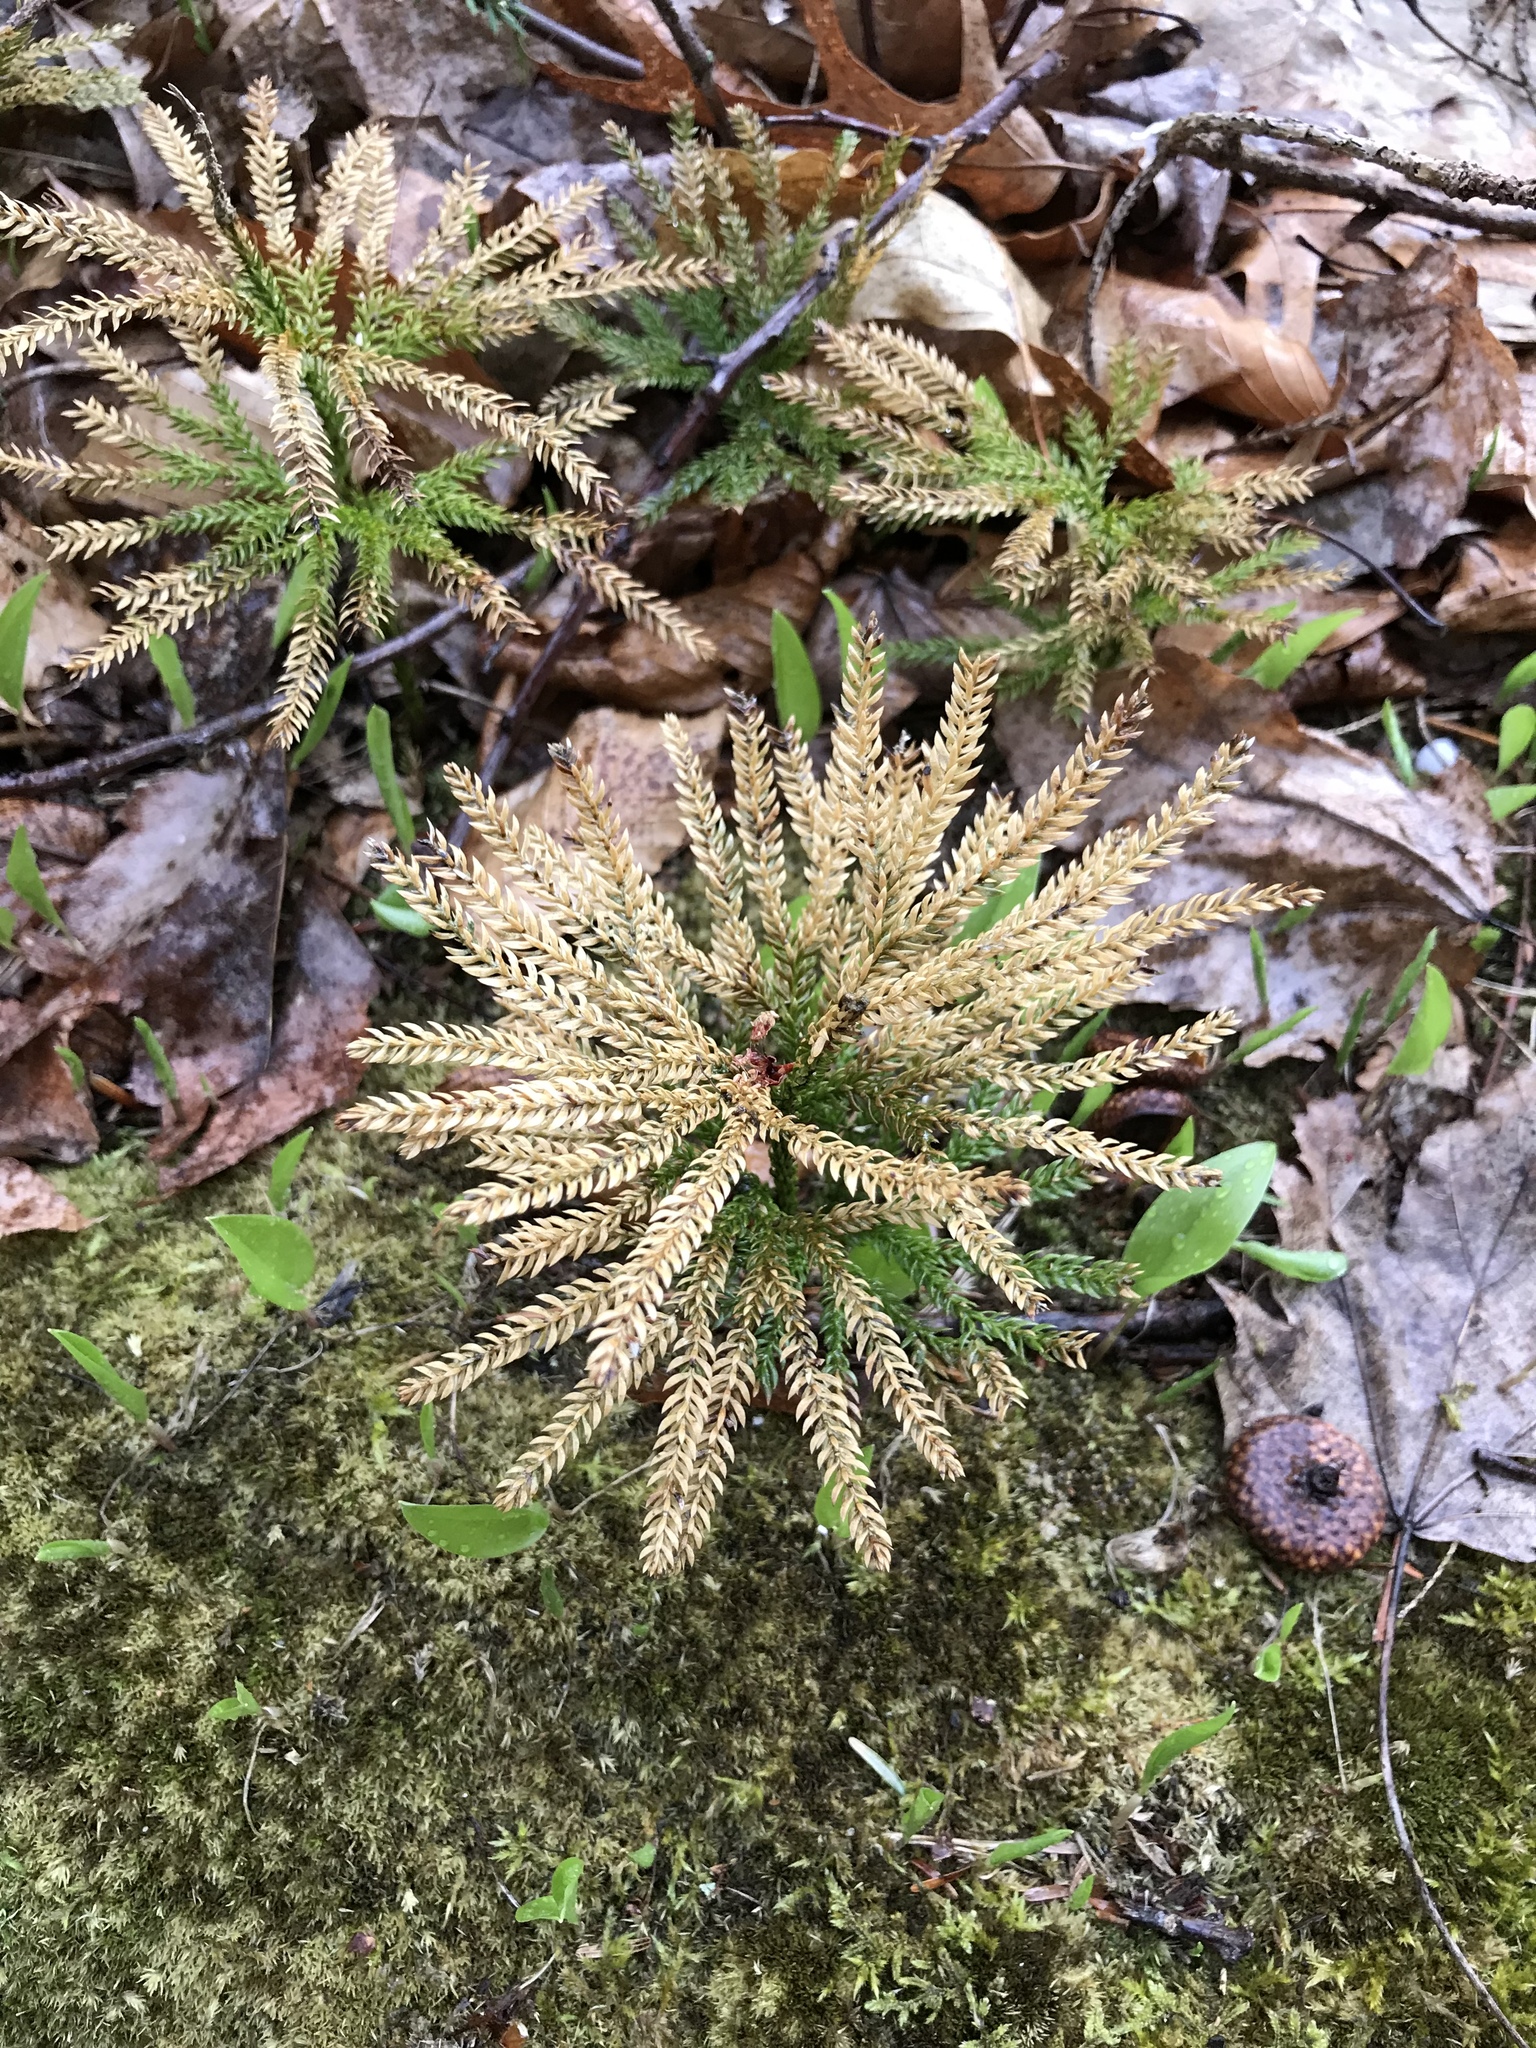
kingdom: Plantae
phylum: Tracheophyta
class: Lycopodiopsida
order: Lycopodiales
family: Lycopodiaceae
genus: Dendrolycopodium
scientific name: Dendrolycopodium obscurum
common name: Common ground-pine
